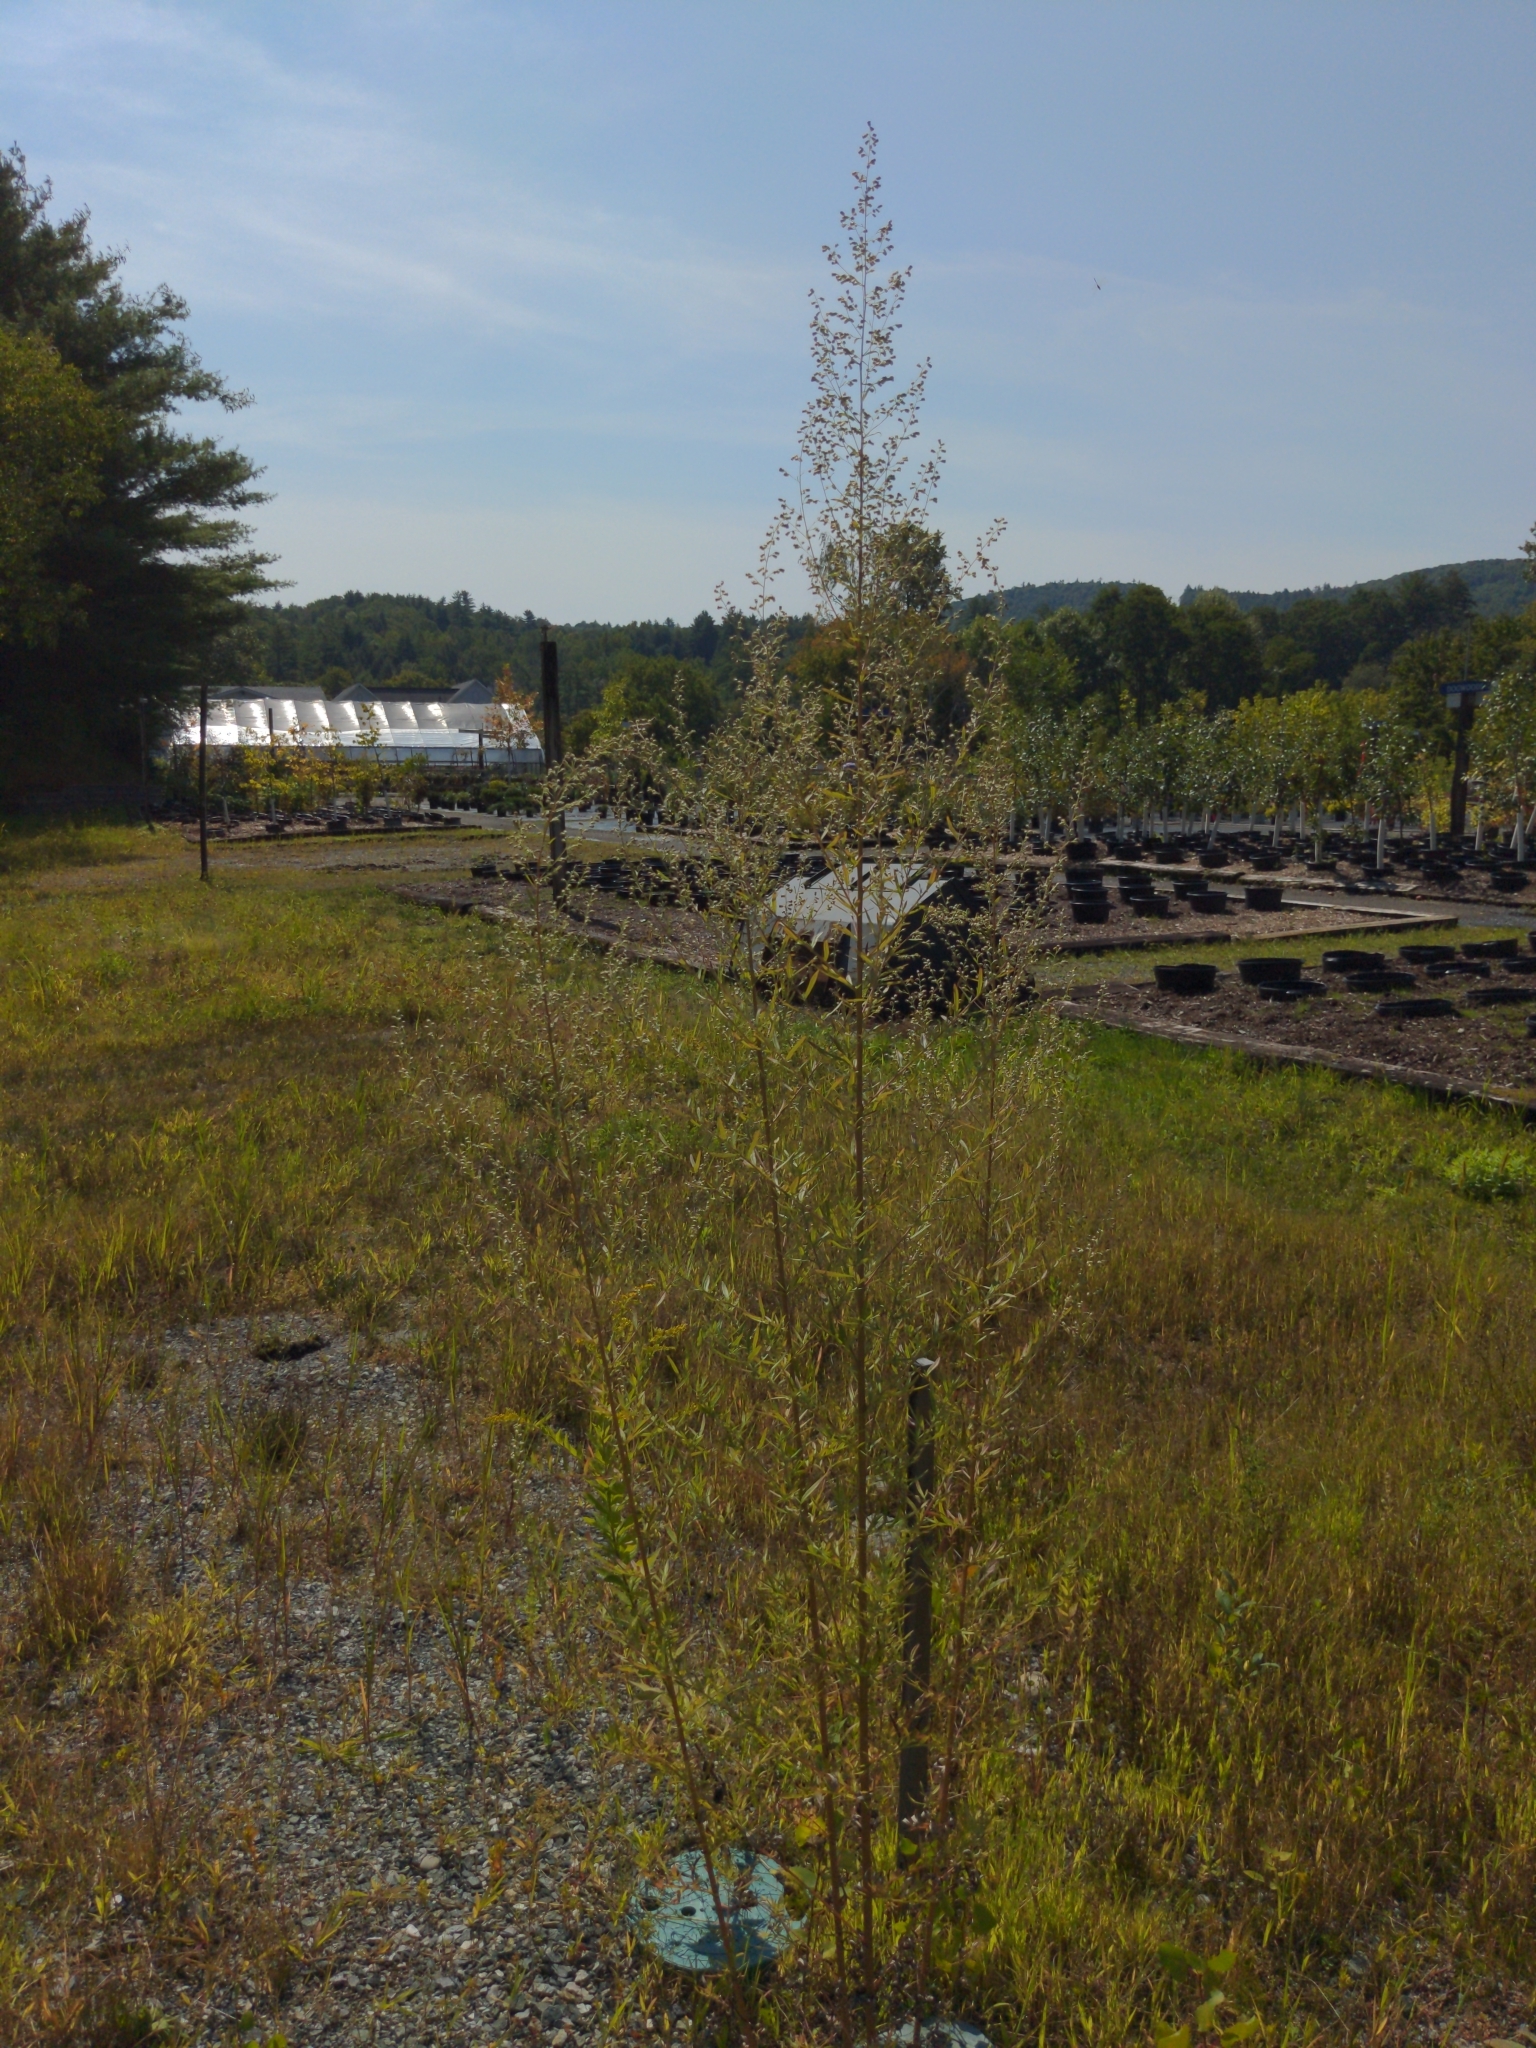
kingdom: Plantae
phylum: Tracheophyta
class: Magnoliopsida
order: Asterales
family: Asteraceae
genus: Artemisia
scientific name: Artemisia vulgaris
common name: Mugwort
